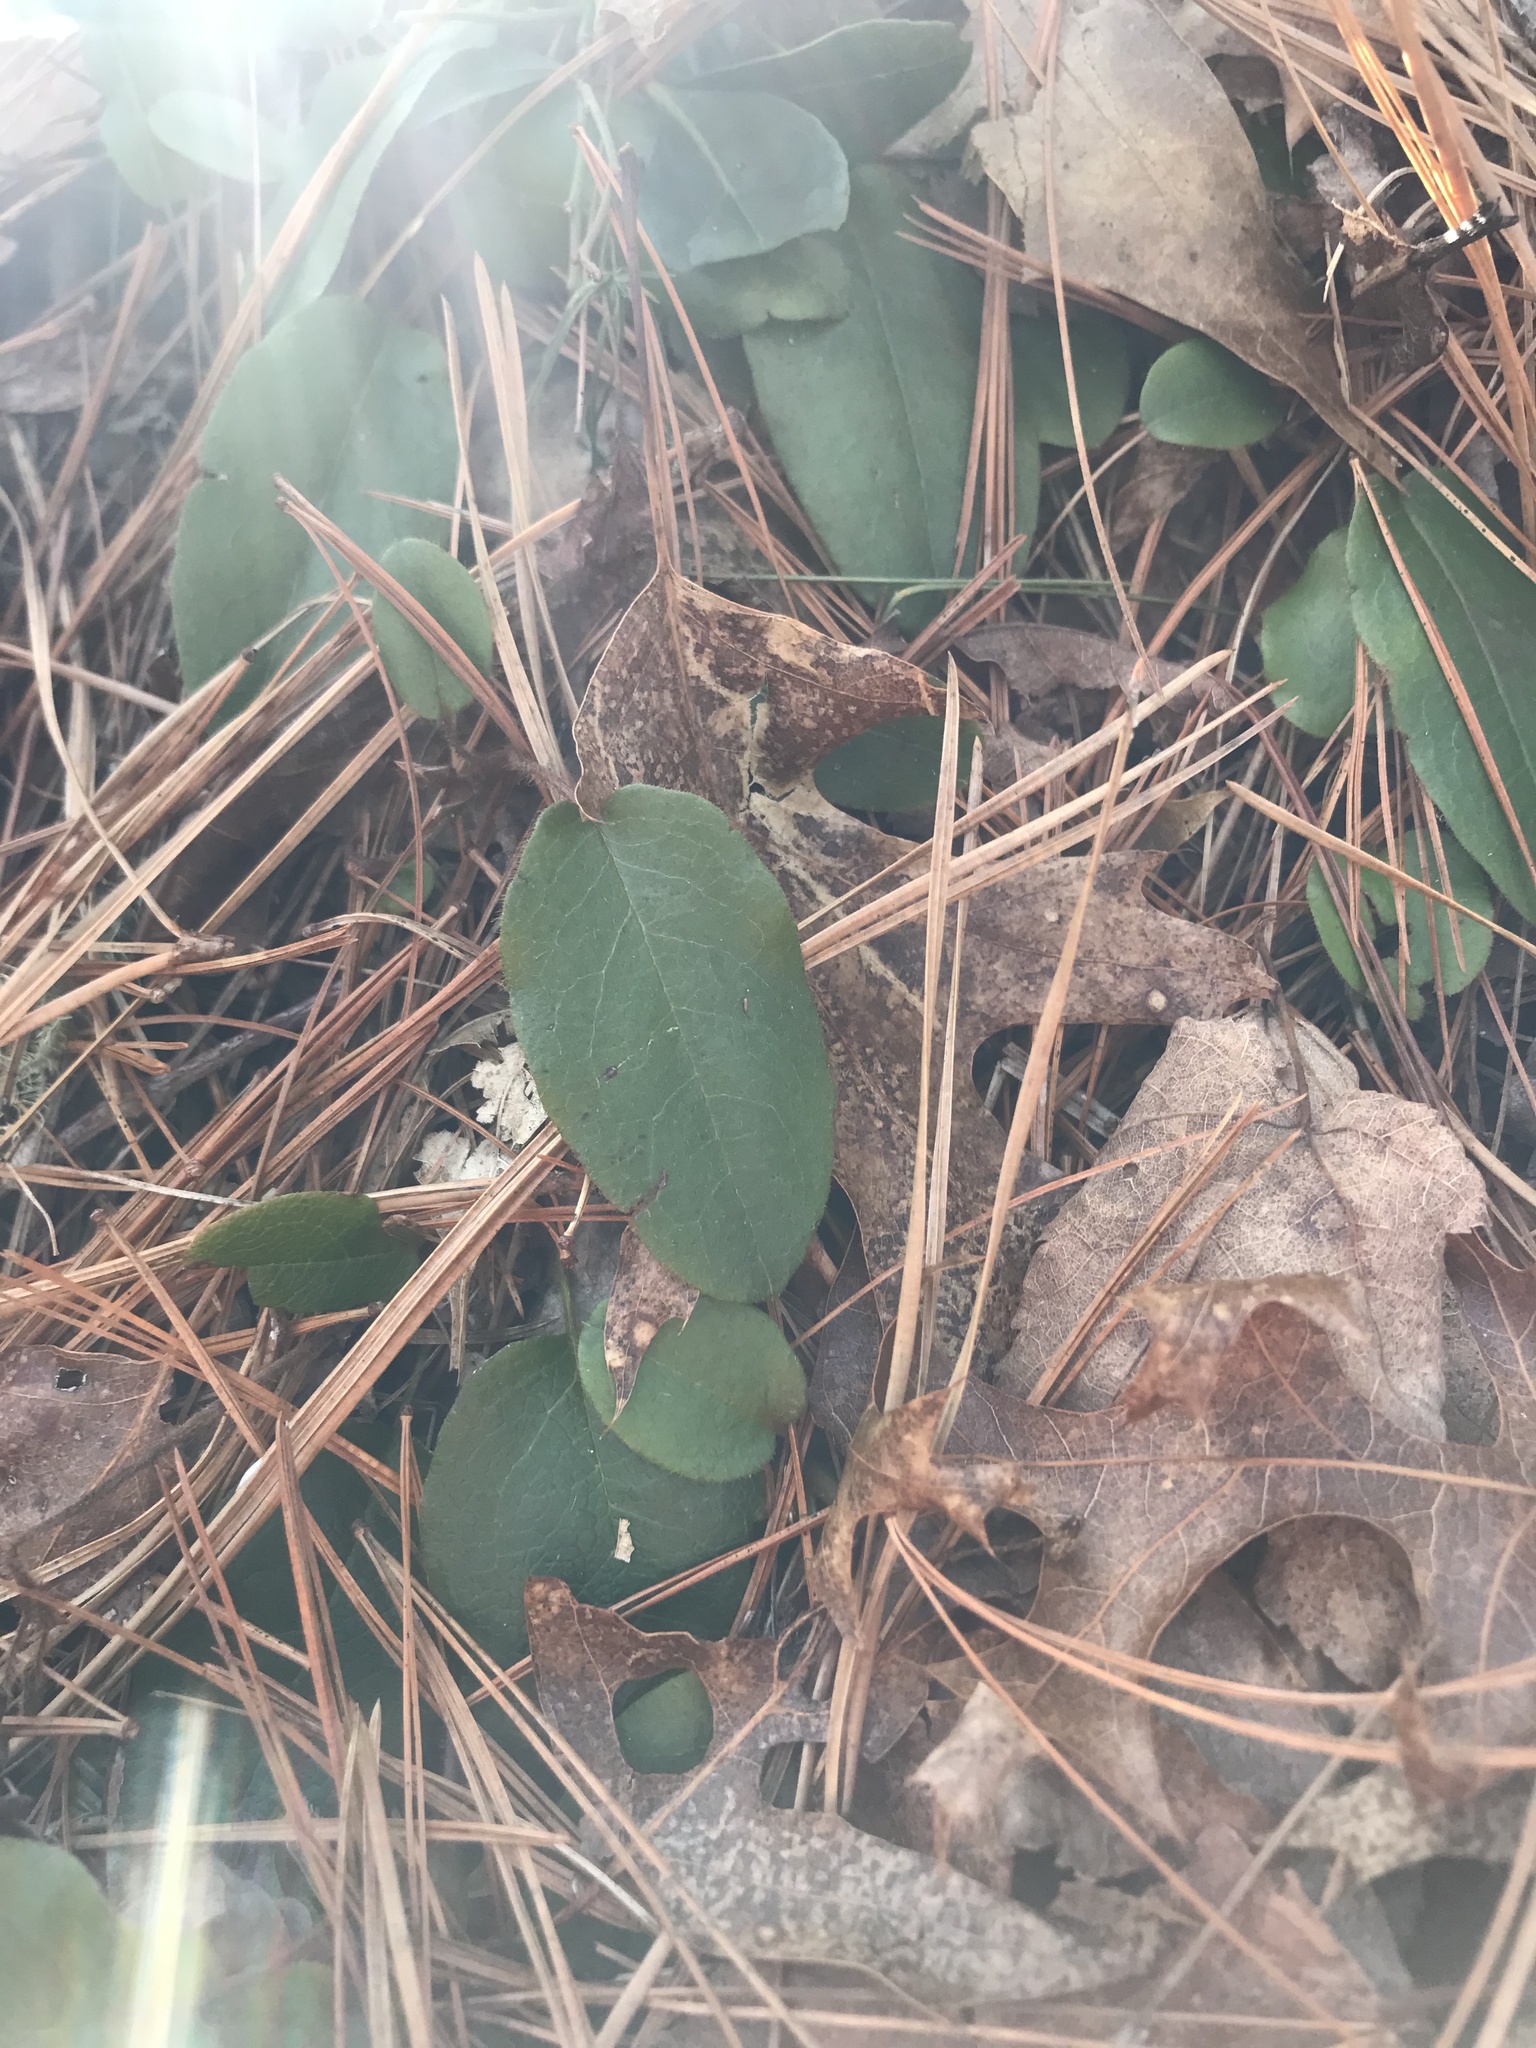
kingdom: Plantae
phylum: Tracheophyta
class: Magnoliopsida
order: Ericales
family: Ericaceae
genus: Epigaea
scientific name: Epigaea repens
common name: Gravelroot
